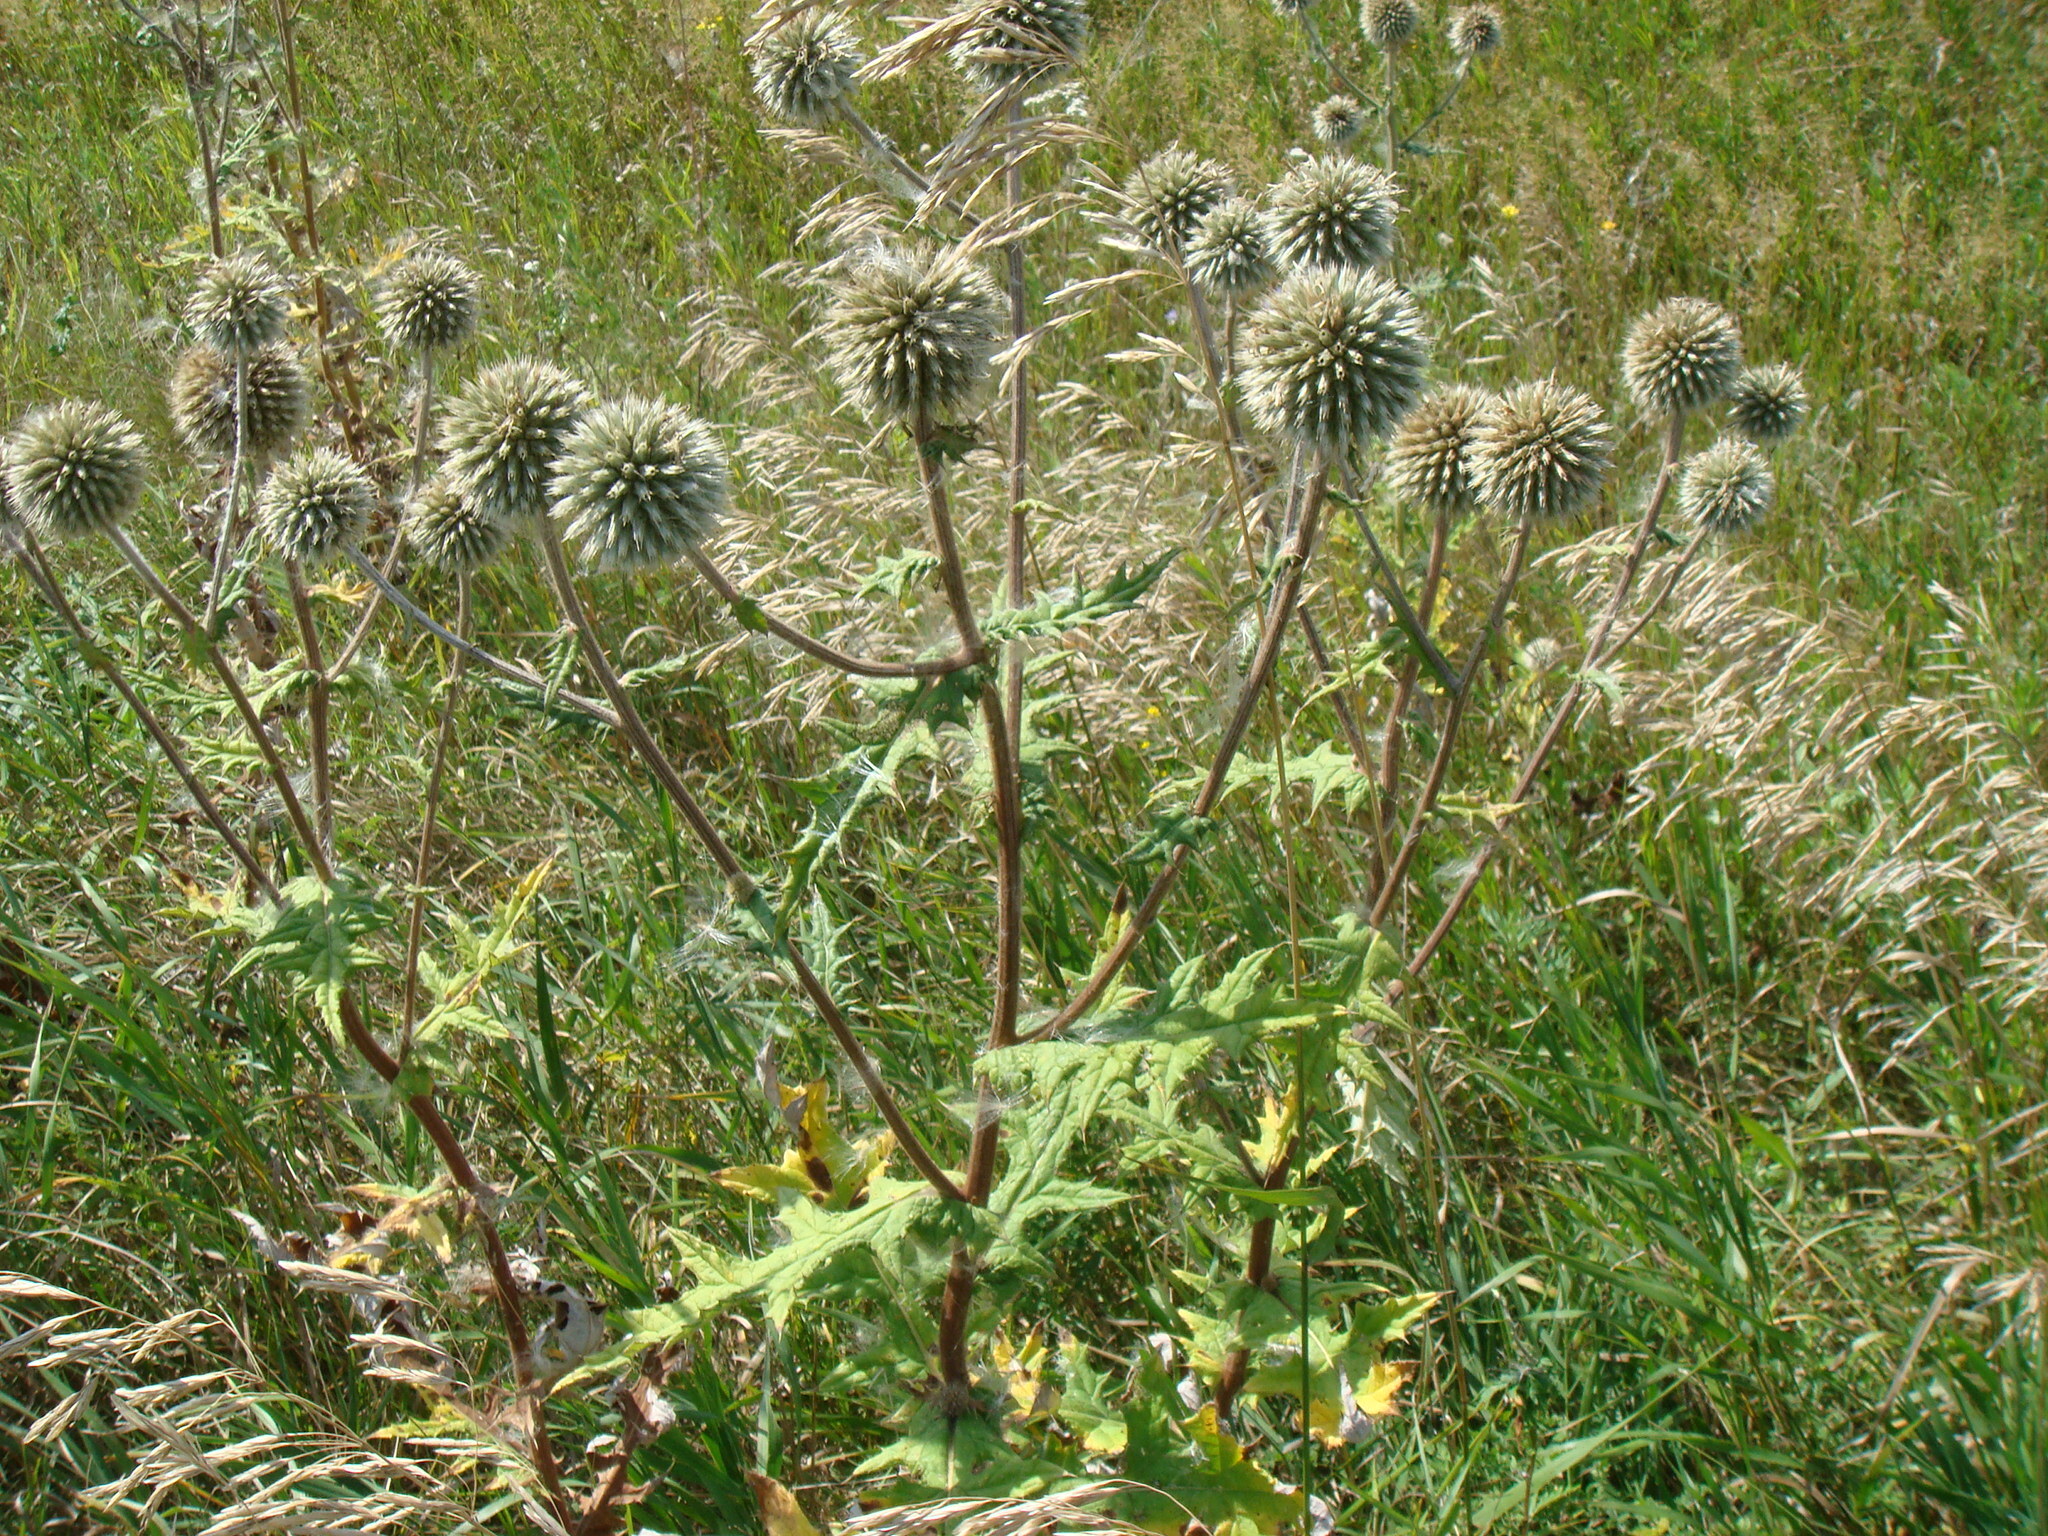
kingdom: Plantae
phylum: Tracheophyta
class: Magnoliopsida
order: Asterales
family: Asteraceae
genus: Echinops
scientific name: Echinops sphaerocephalus
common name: Glandular globe-thistle
